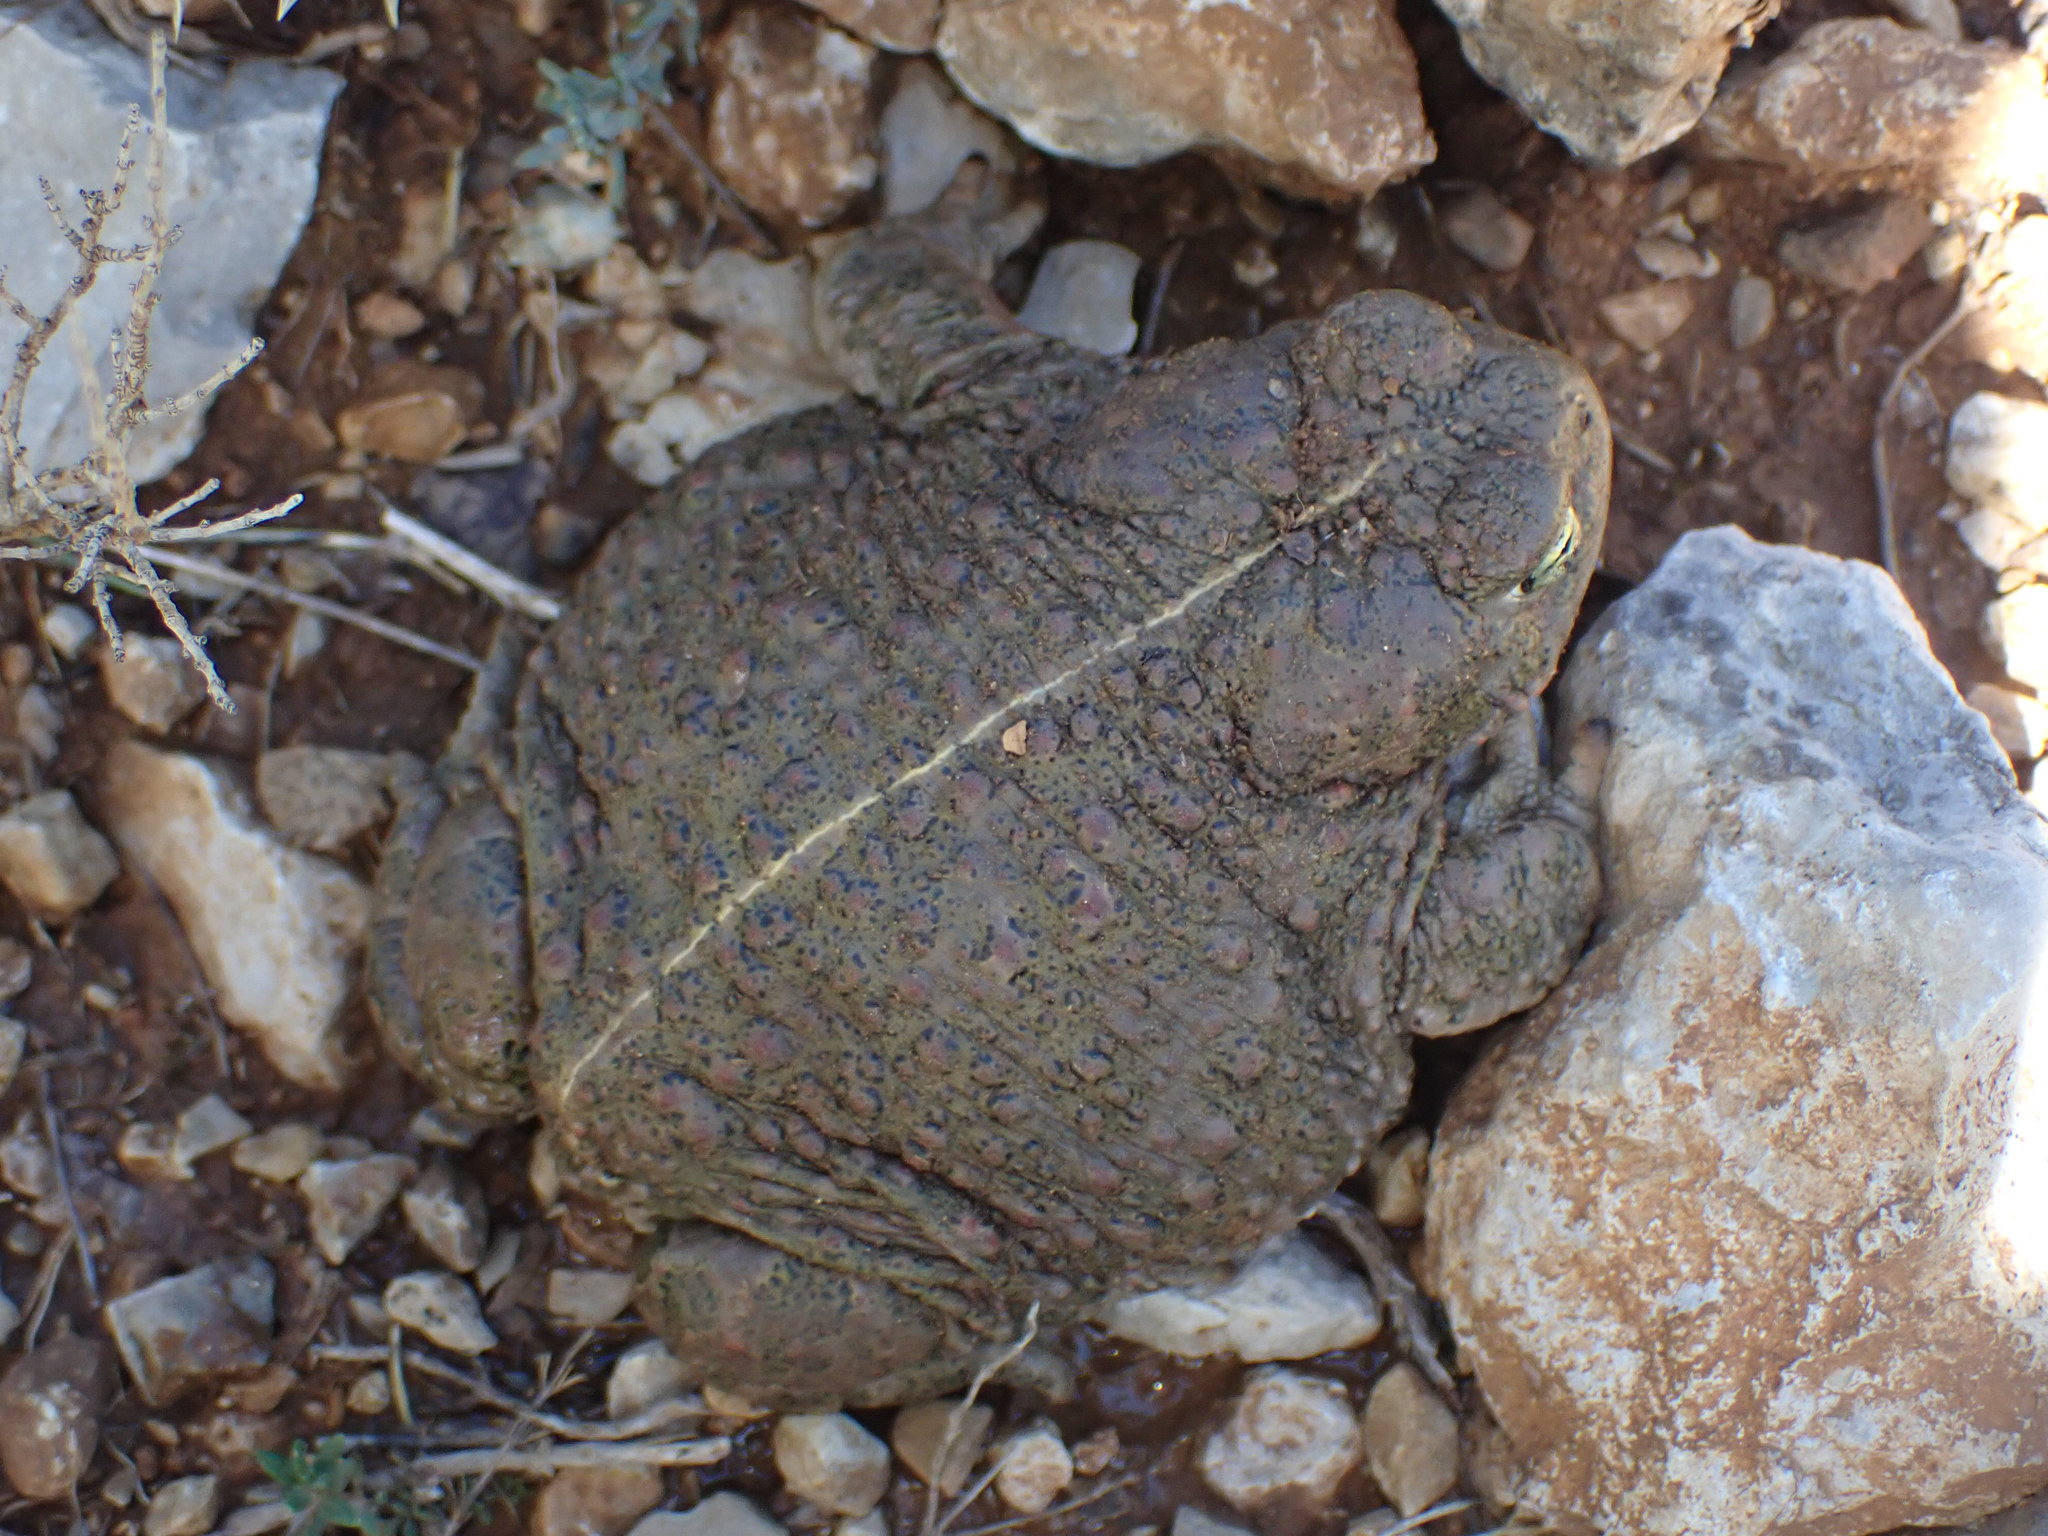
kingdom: Animalia
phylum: Chordata
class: Amphibia
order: Anura
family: Bufonidae
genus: Epidalea
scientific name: Epidalea calamita
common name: Natterjack toad
